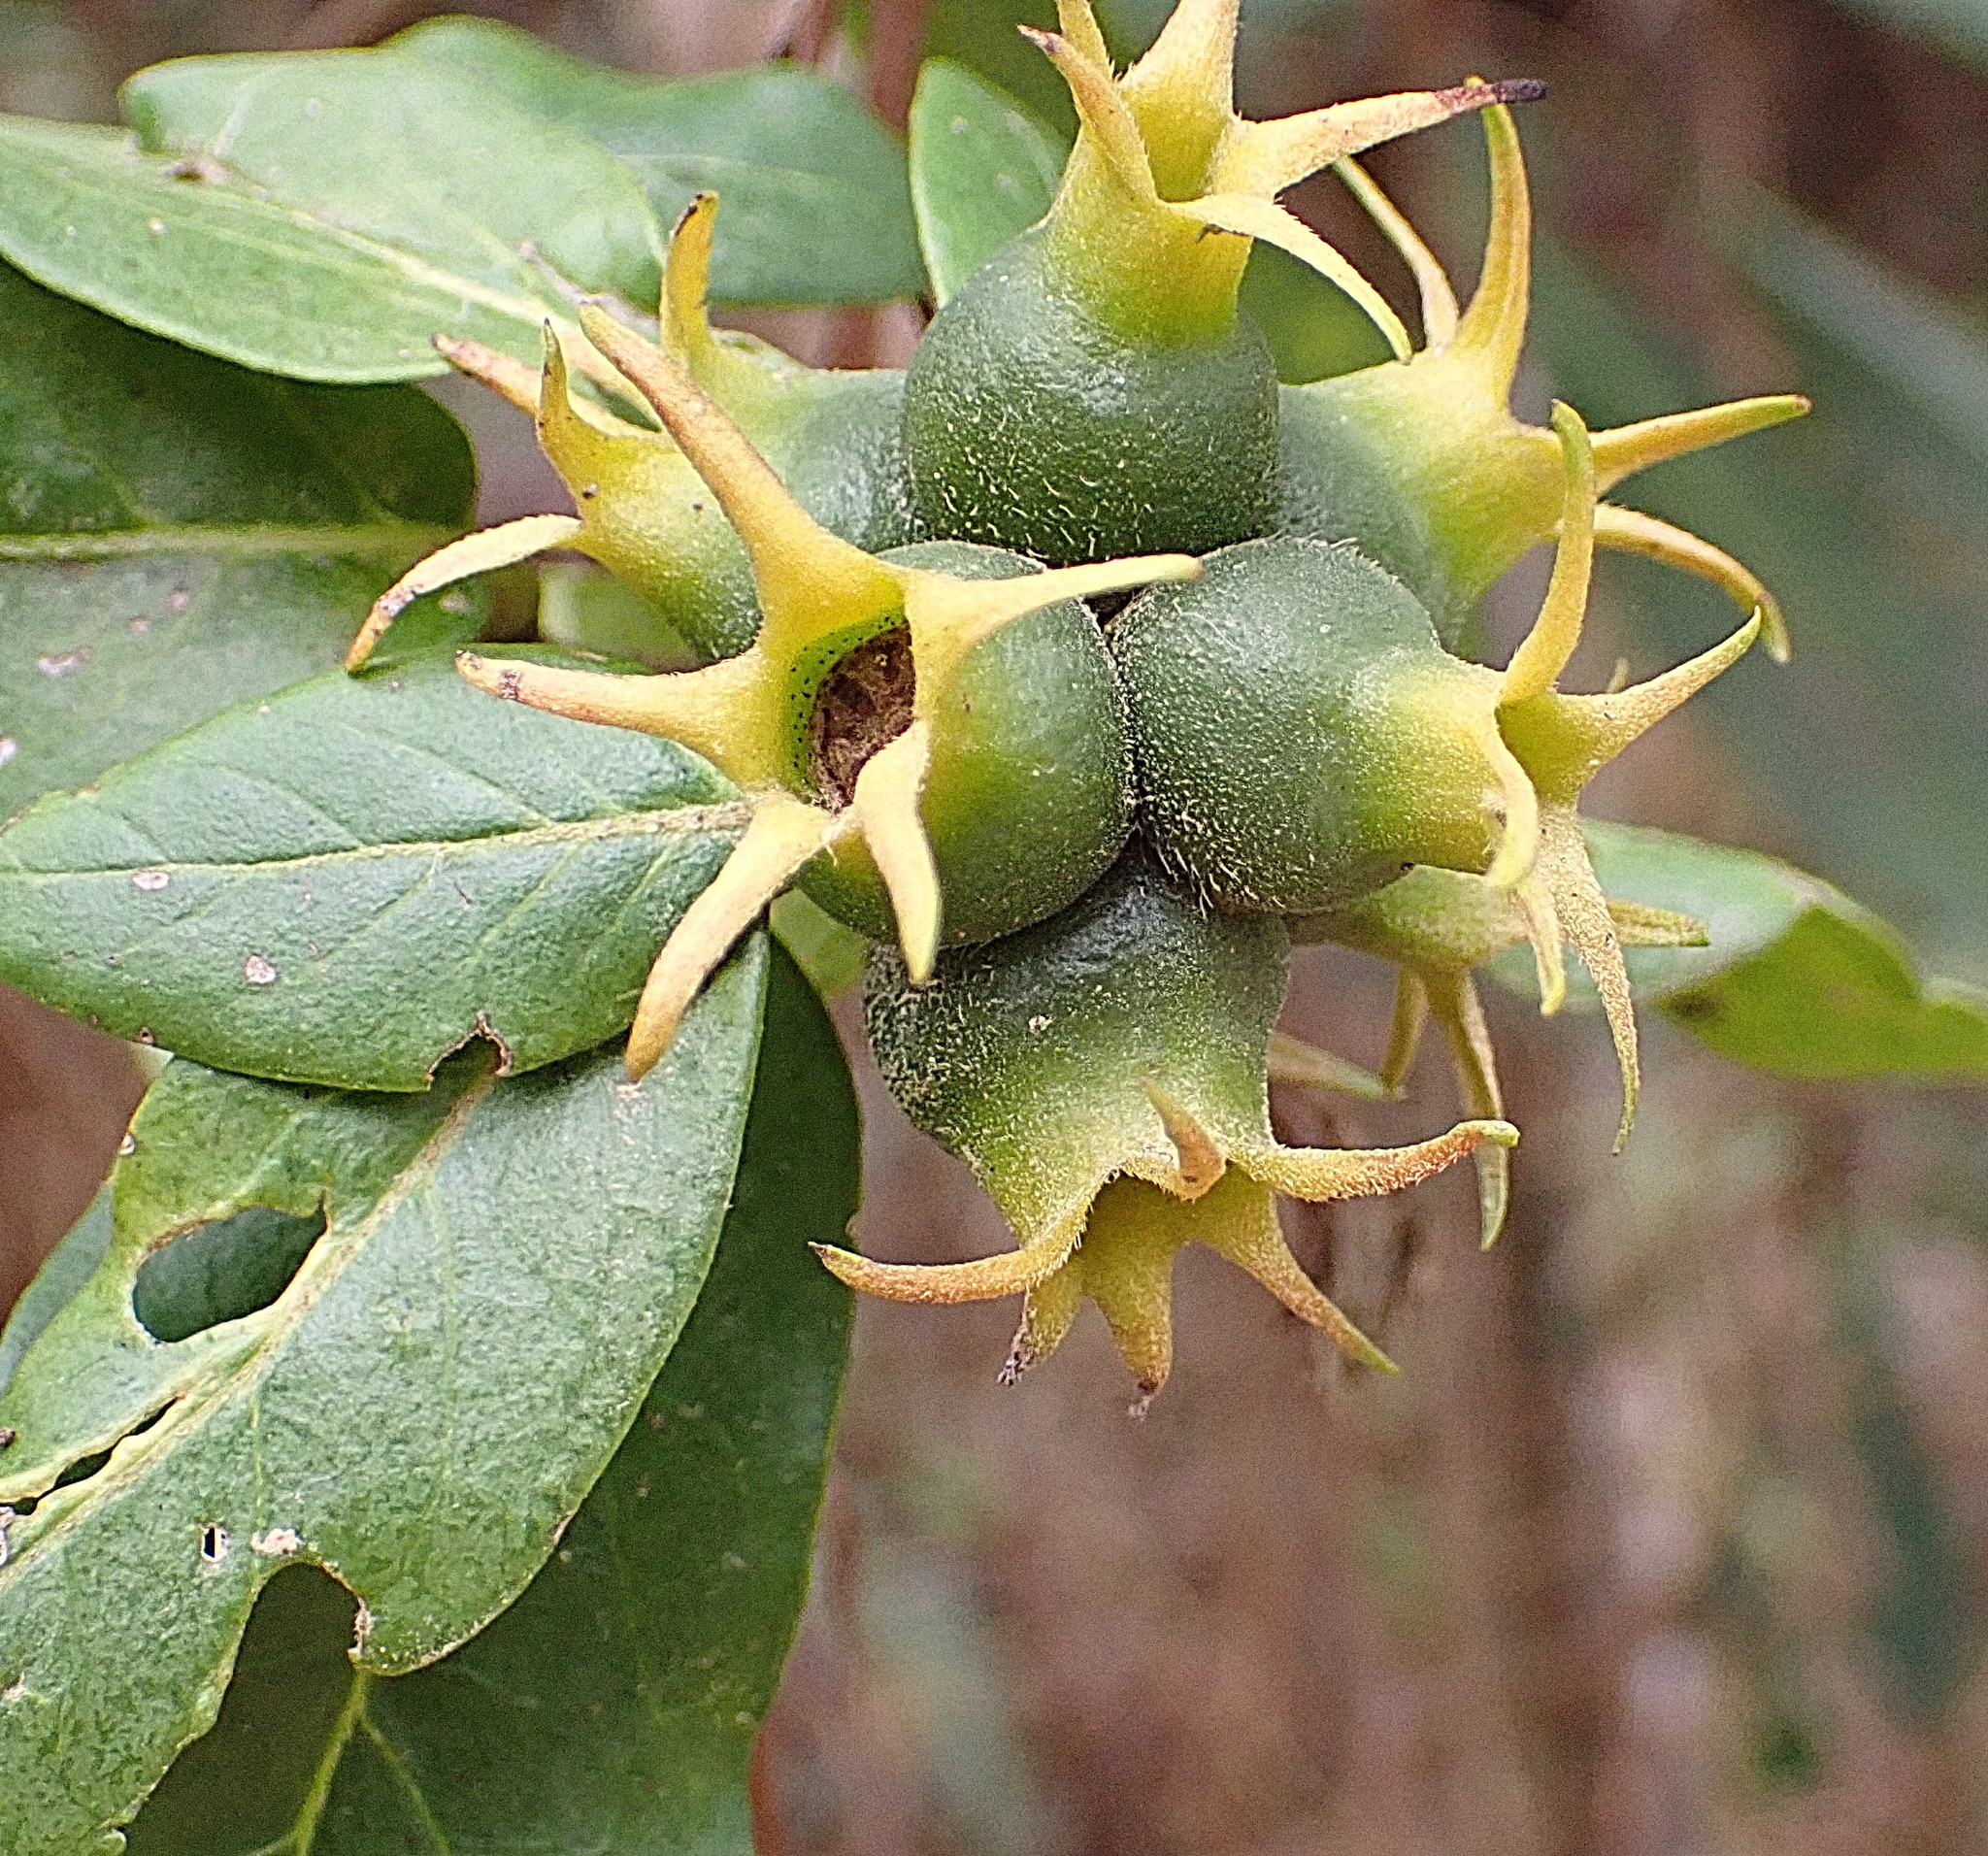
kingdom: Plantae
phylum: Tracheophyta
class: Magnoliopsida
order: Gentianales
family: Rubiaceae
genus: Burchellia
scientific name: Burchellia bubalina
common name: Wild pomegranate
